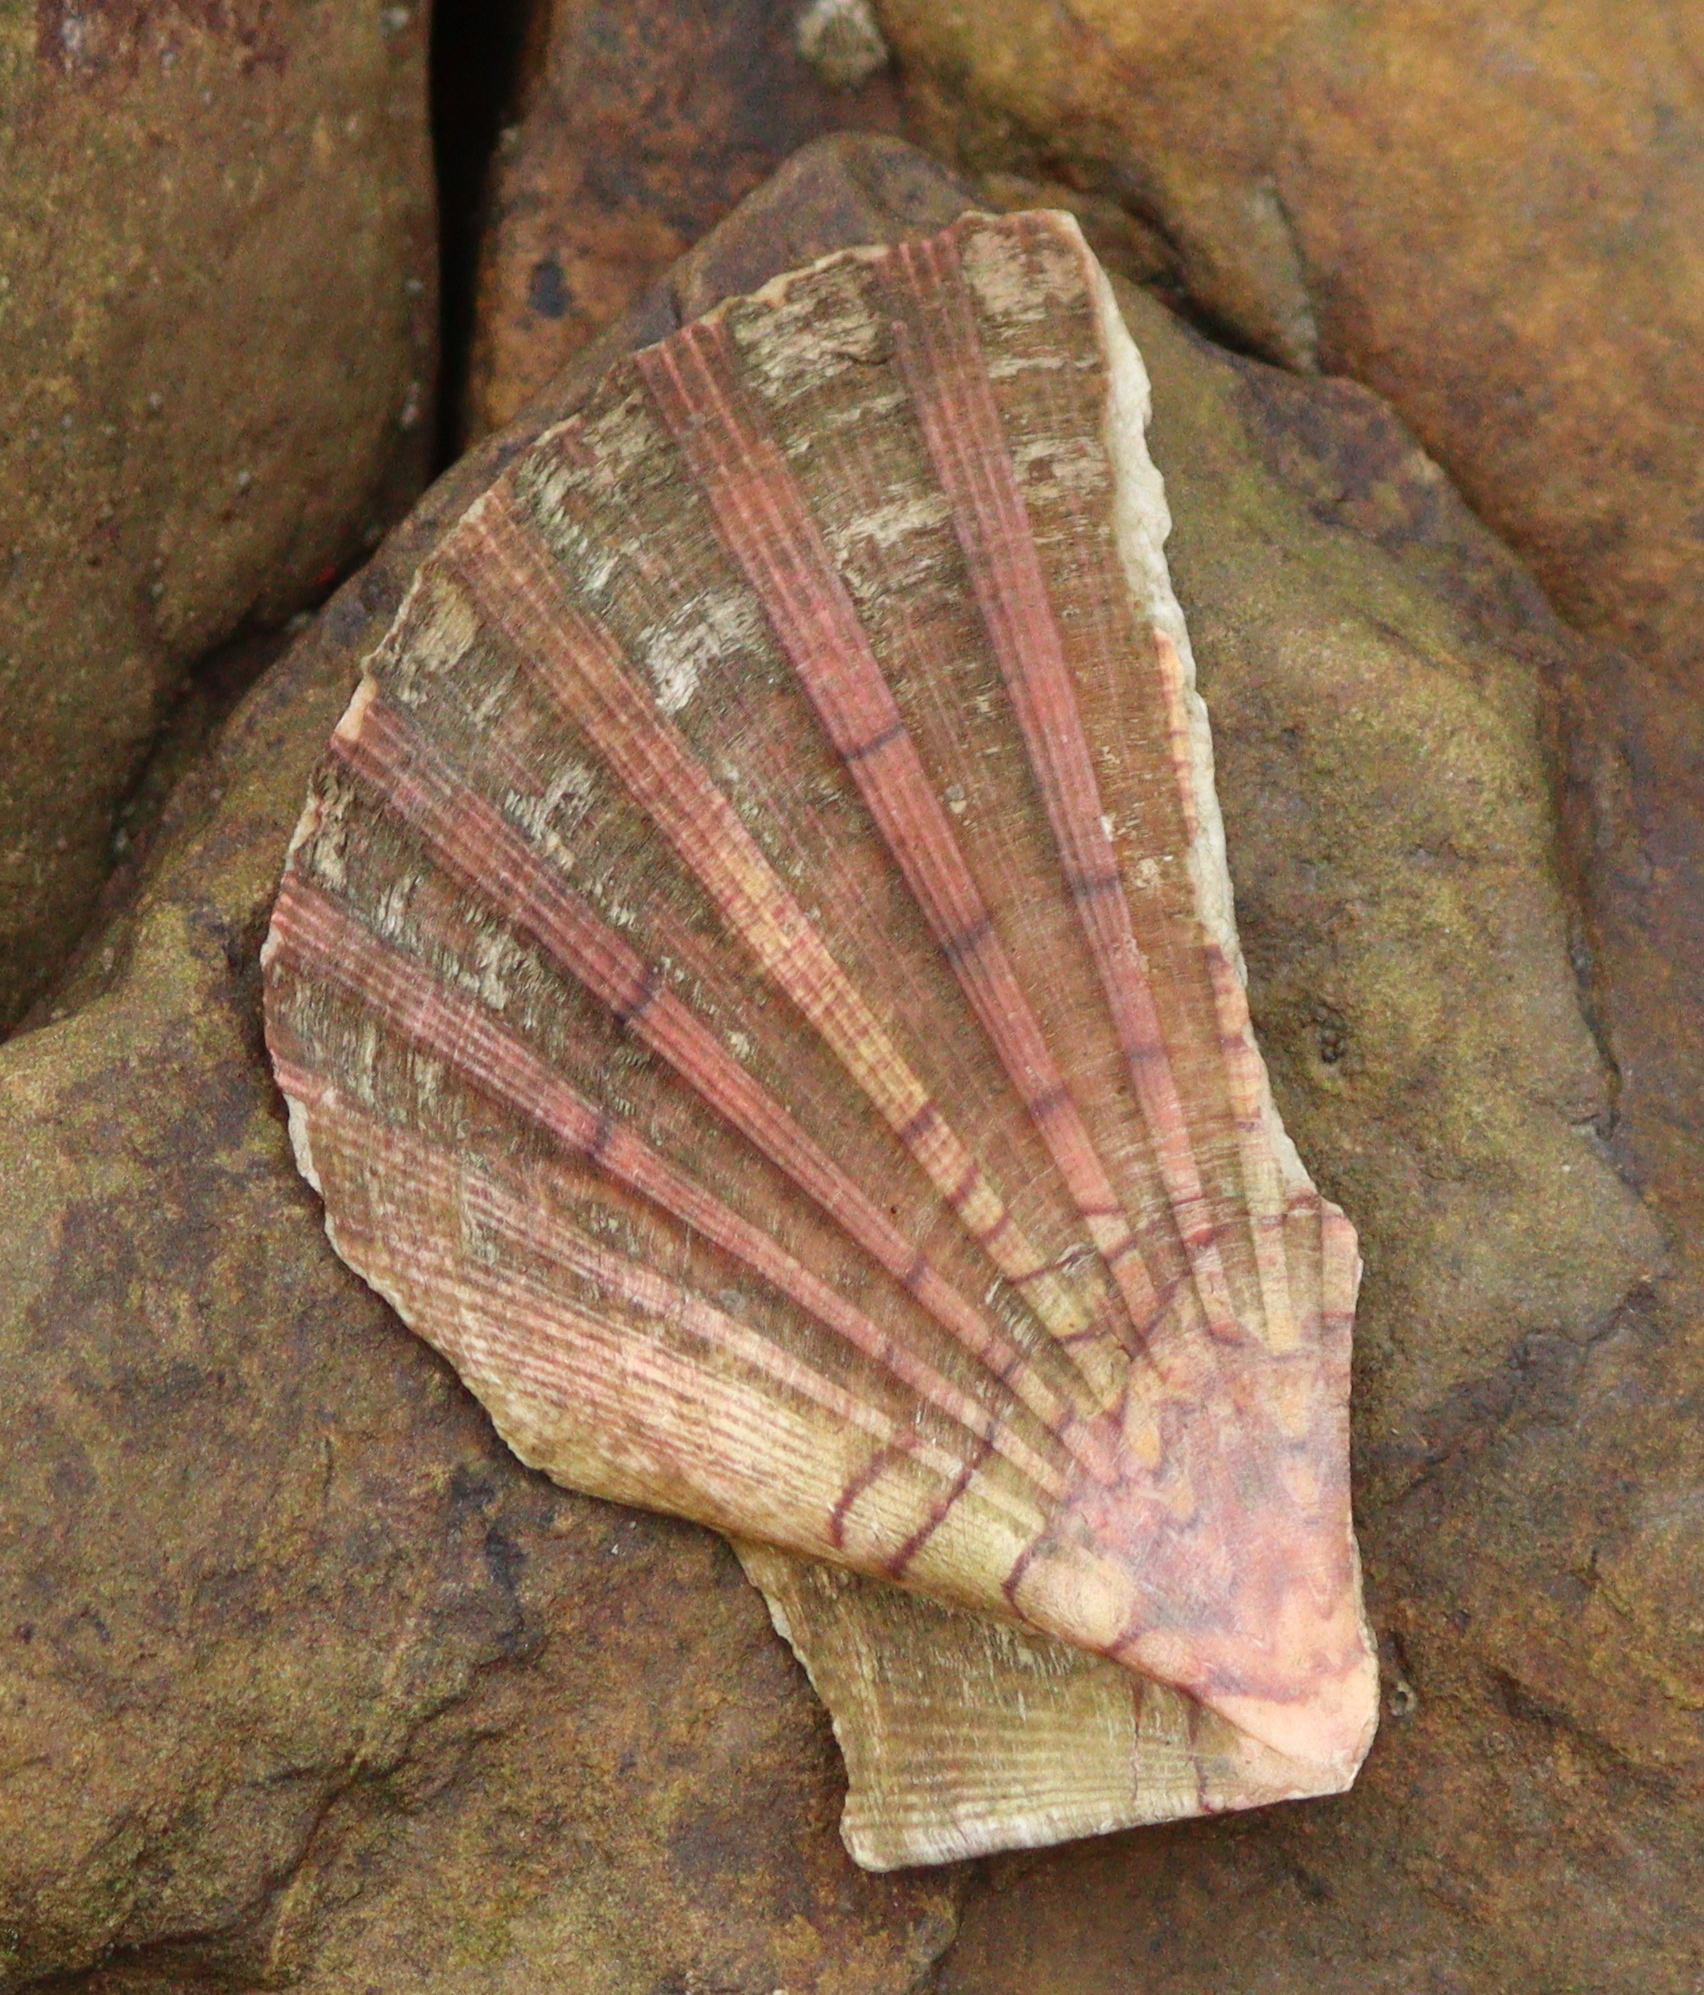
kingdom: Animalia
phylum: Mollusca
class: Bivalvia
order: Pectinida
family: Pectinidae
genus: Pecten
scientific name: Pecten maximus
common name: Great scallop
